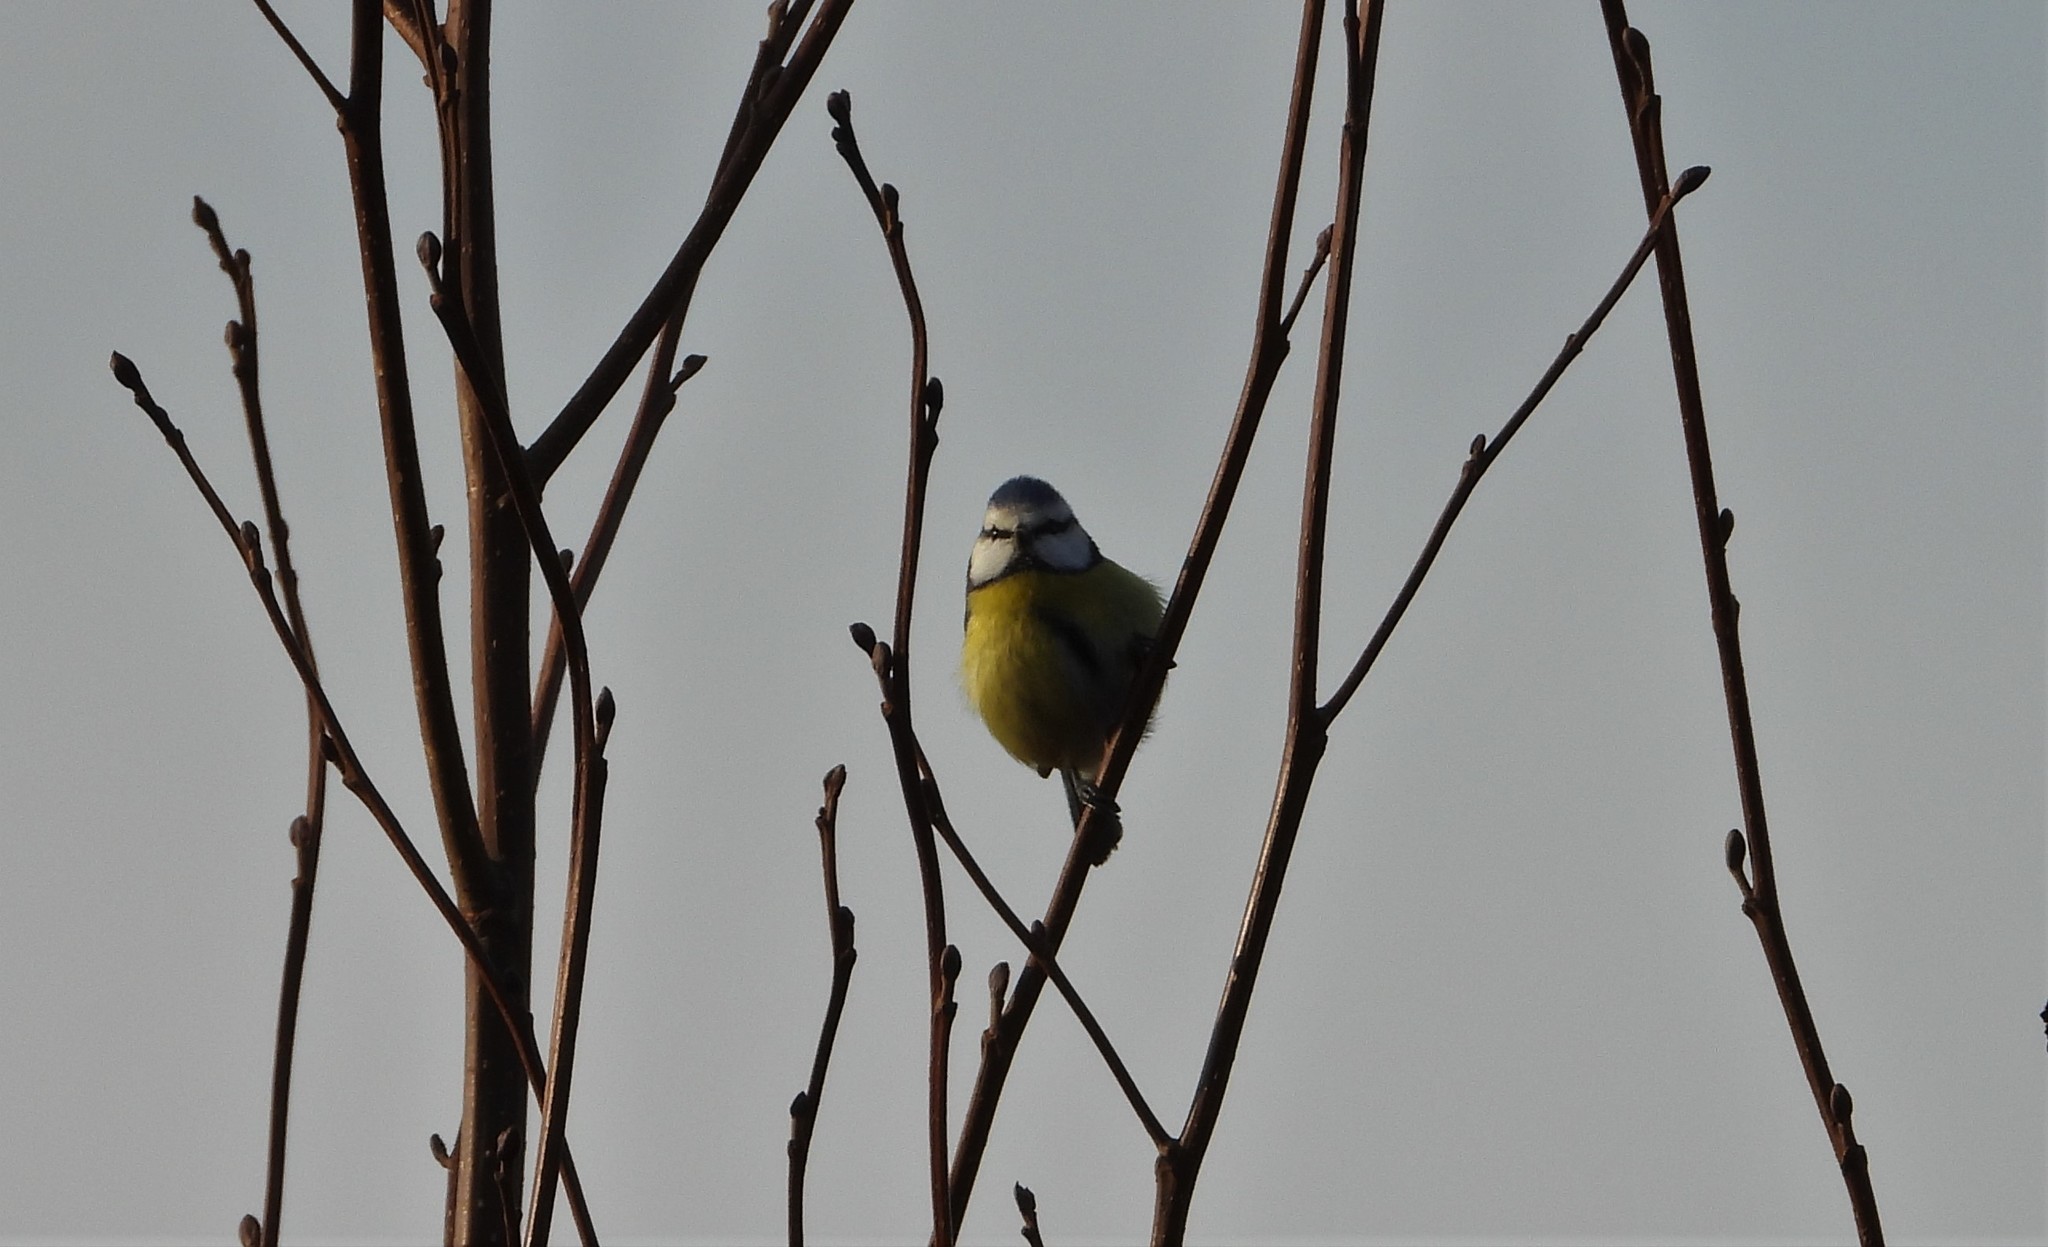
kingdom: Animalia
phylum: Chordata
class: Aves
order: Passeriformes
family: Paridae
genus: Cyanistes
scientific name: Cyanistes caeruleus
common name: Eurasian blue tit
